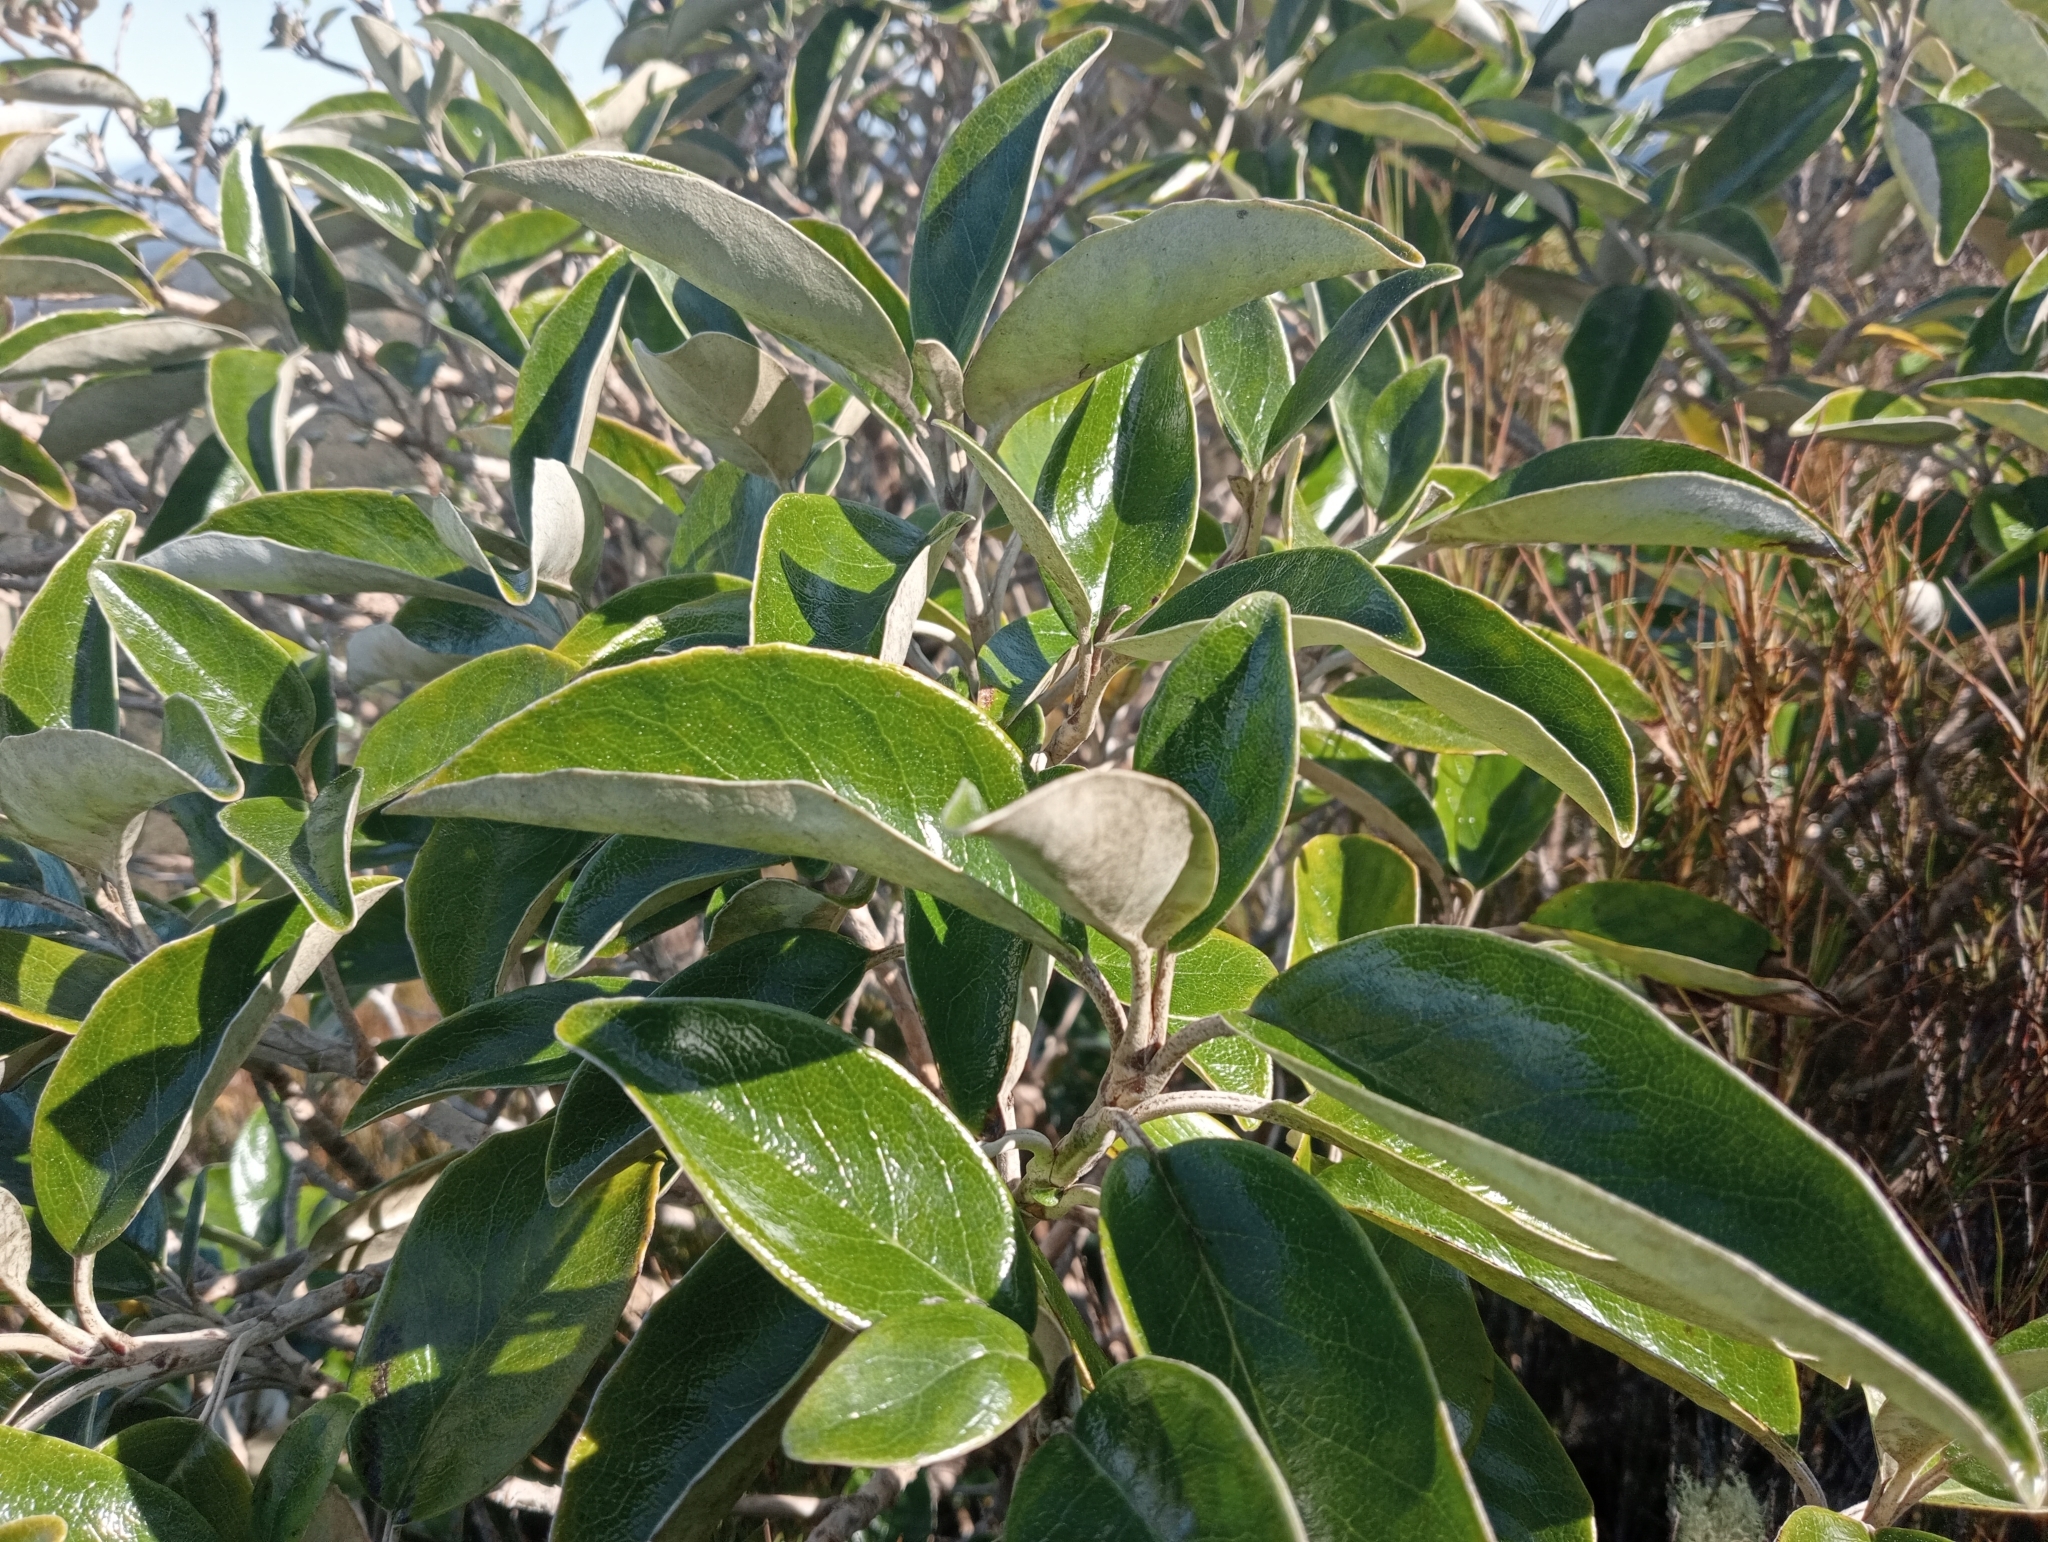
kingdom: Plantae
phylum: Tracheophyta
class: Magnoliopsida
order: Asterales
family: Asteraceae
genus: Brachyglottis
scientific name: Brachyglottis buchananii
